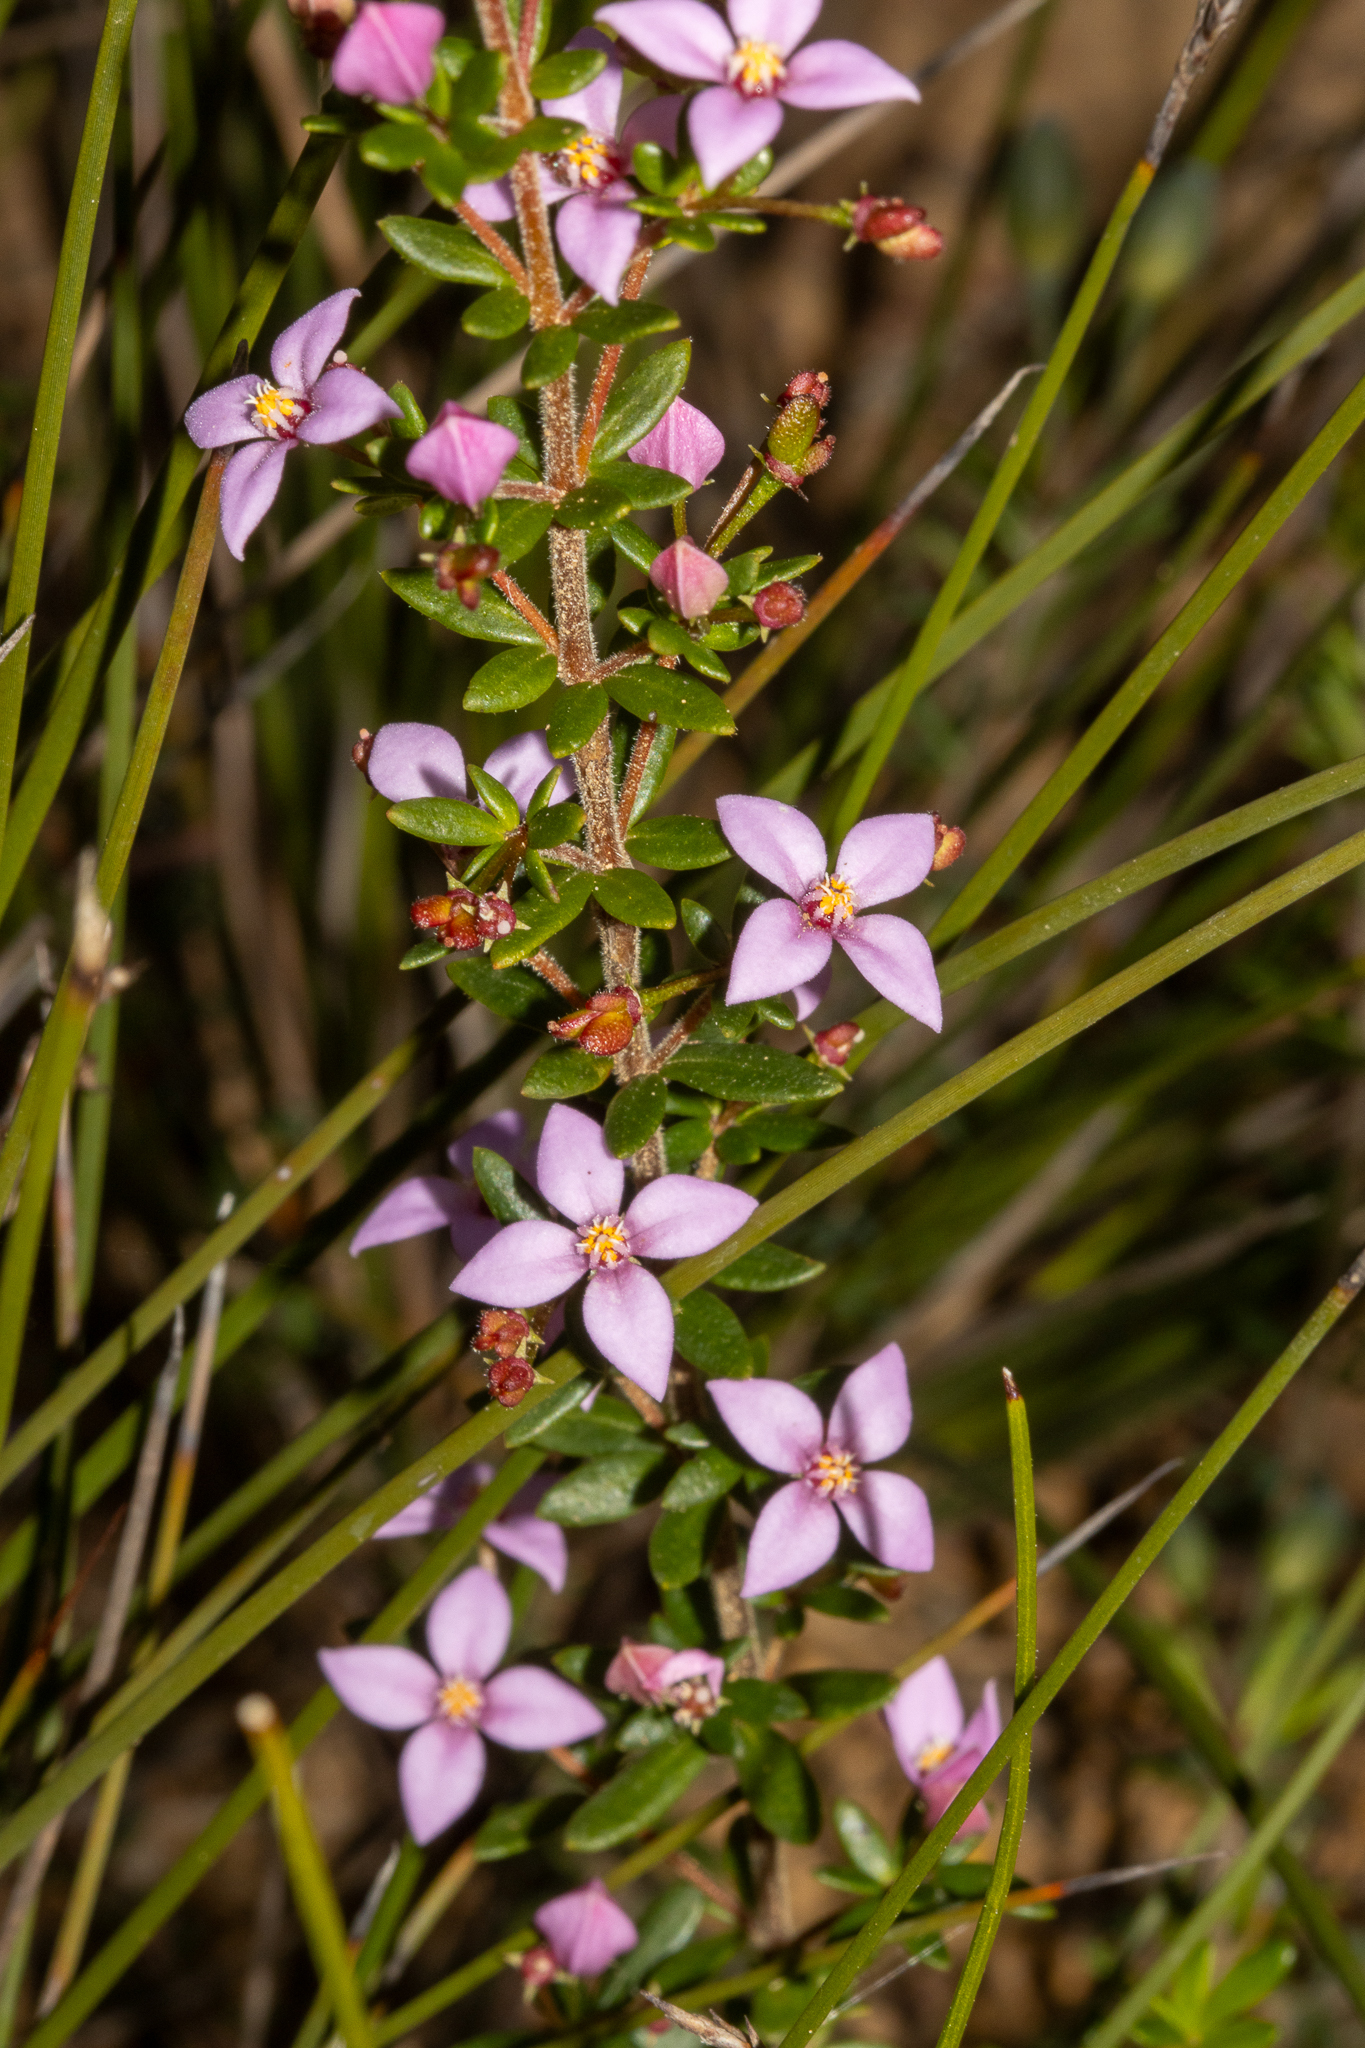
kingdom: Plantae
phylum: Tracheophyta
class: Magnoliopsida
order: Sapindales
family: Rutaceae
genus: Boronia
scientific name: Boronia edwardsii
